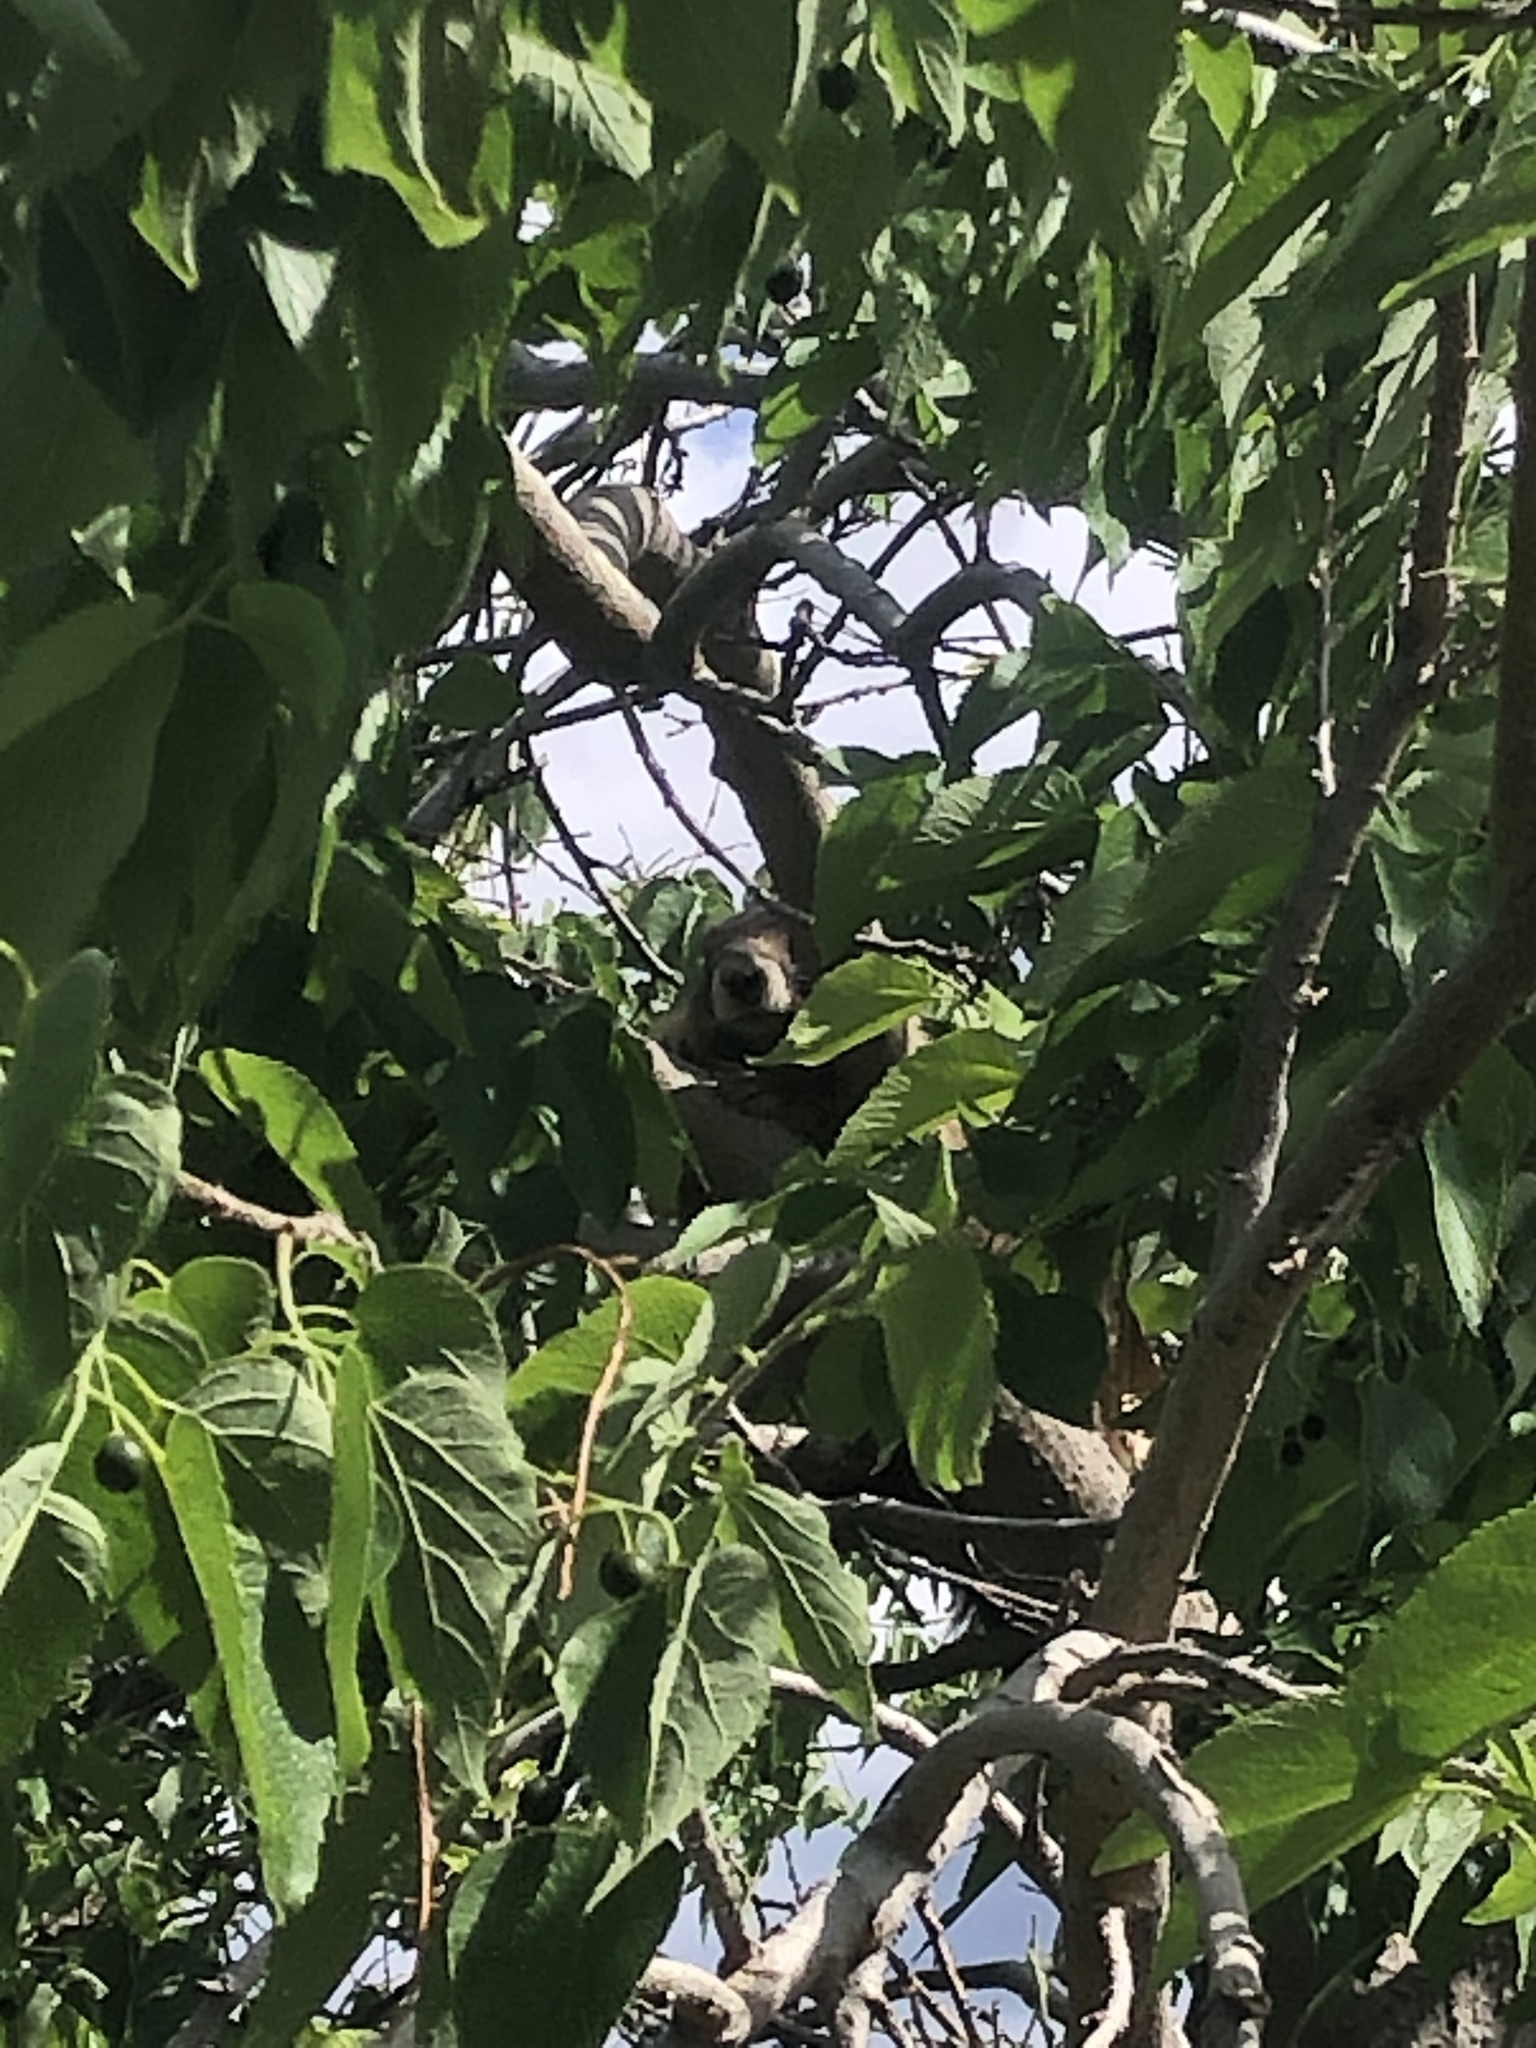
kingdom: Animalia
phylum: Chordata
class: Mammalia
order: Rodentia
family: Sciuridae
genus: Marmota
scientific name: Marmota flaviventris
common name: Yellow-bellied marmot
